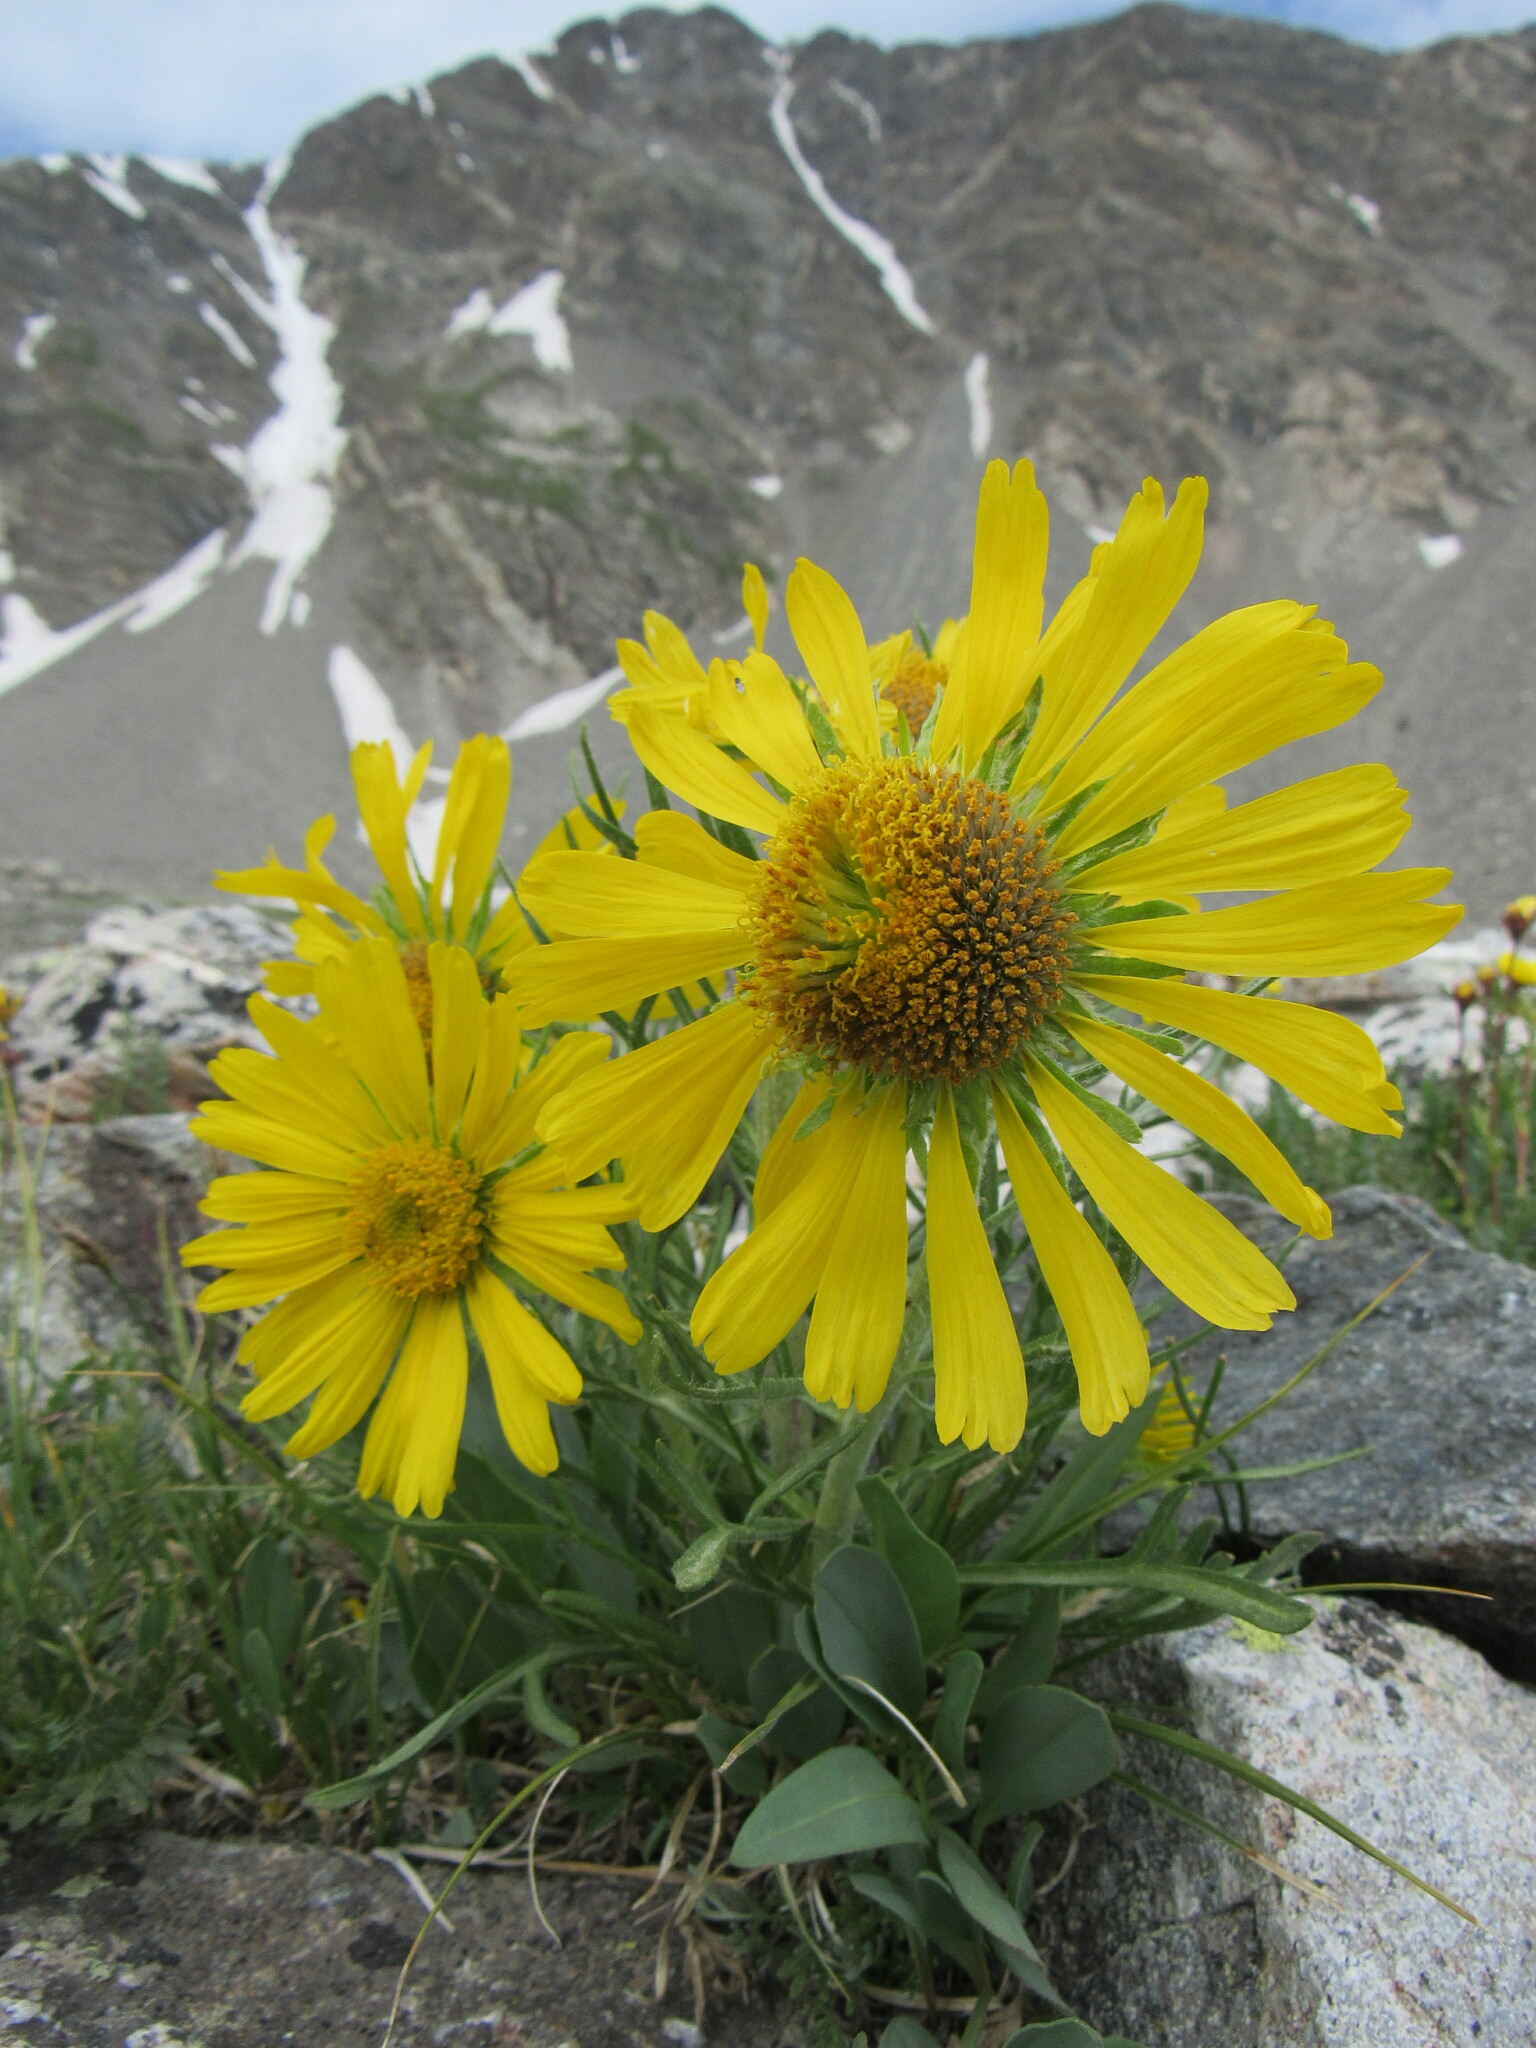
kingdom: Plantae
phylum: Tracheophyta
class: Magnoliopsida
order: Asterales
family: Asteraceae
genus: Hymenoxys
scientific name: Hymenoxys grandiflora
